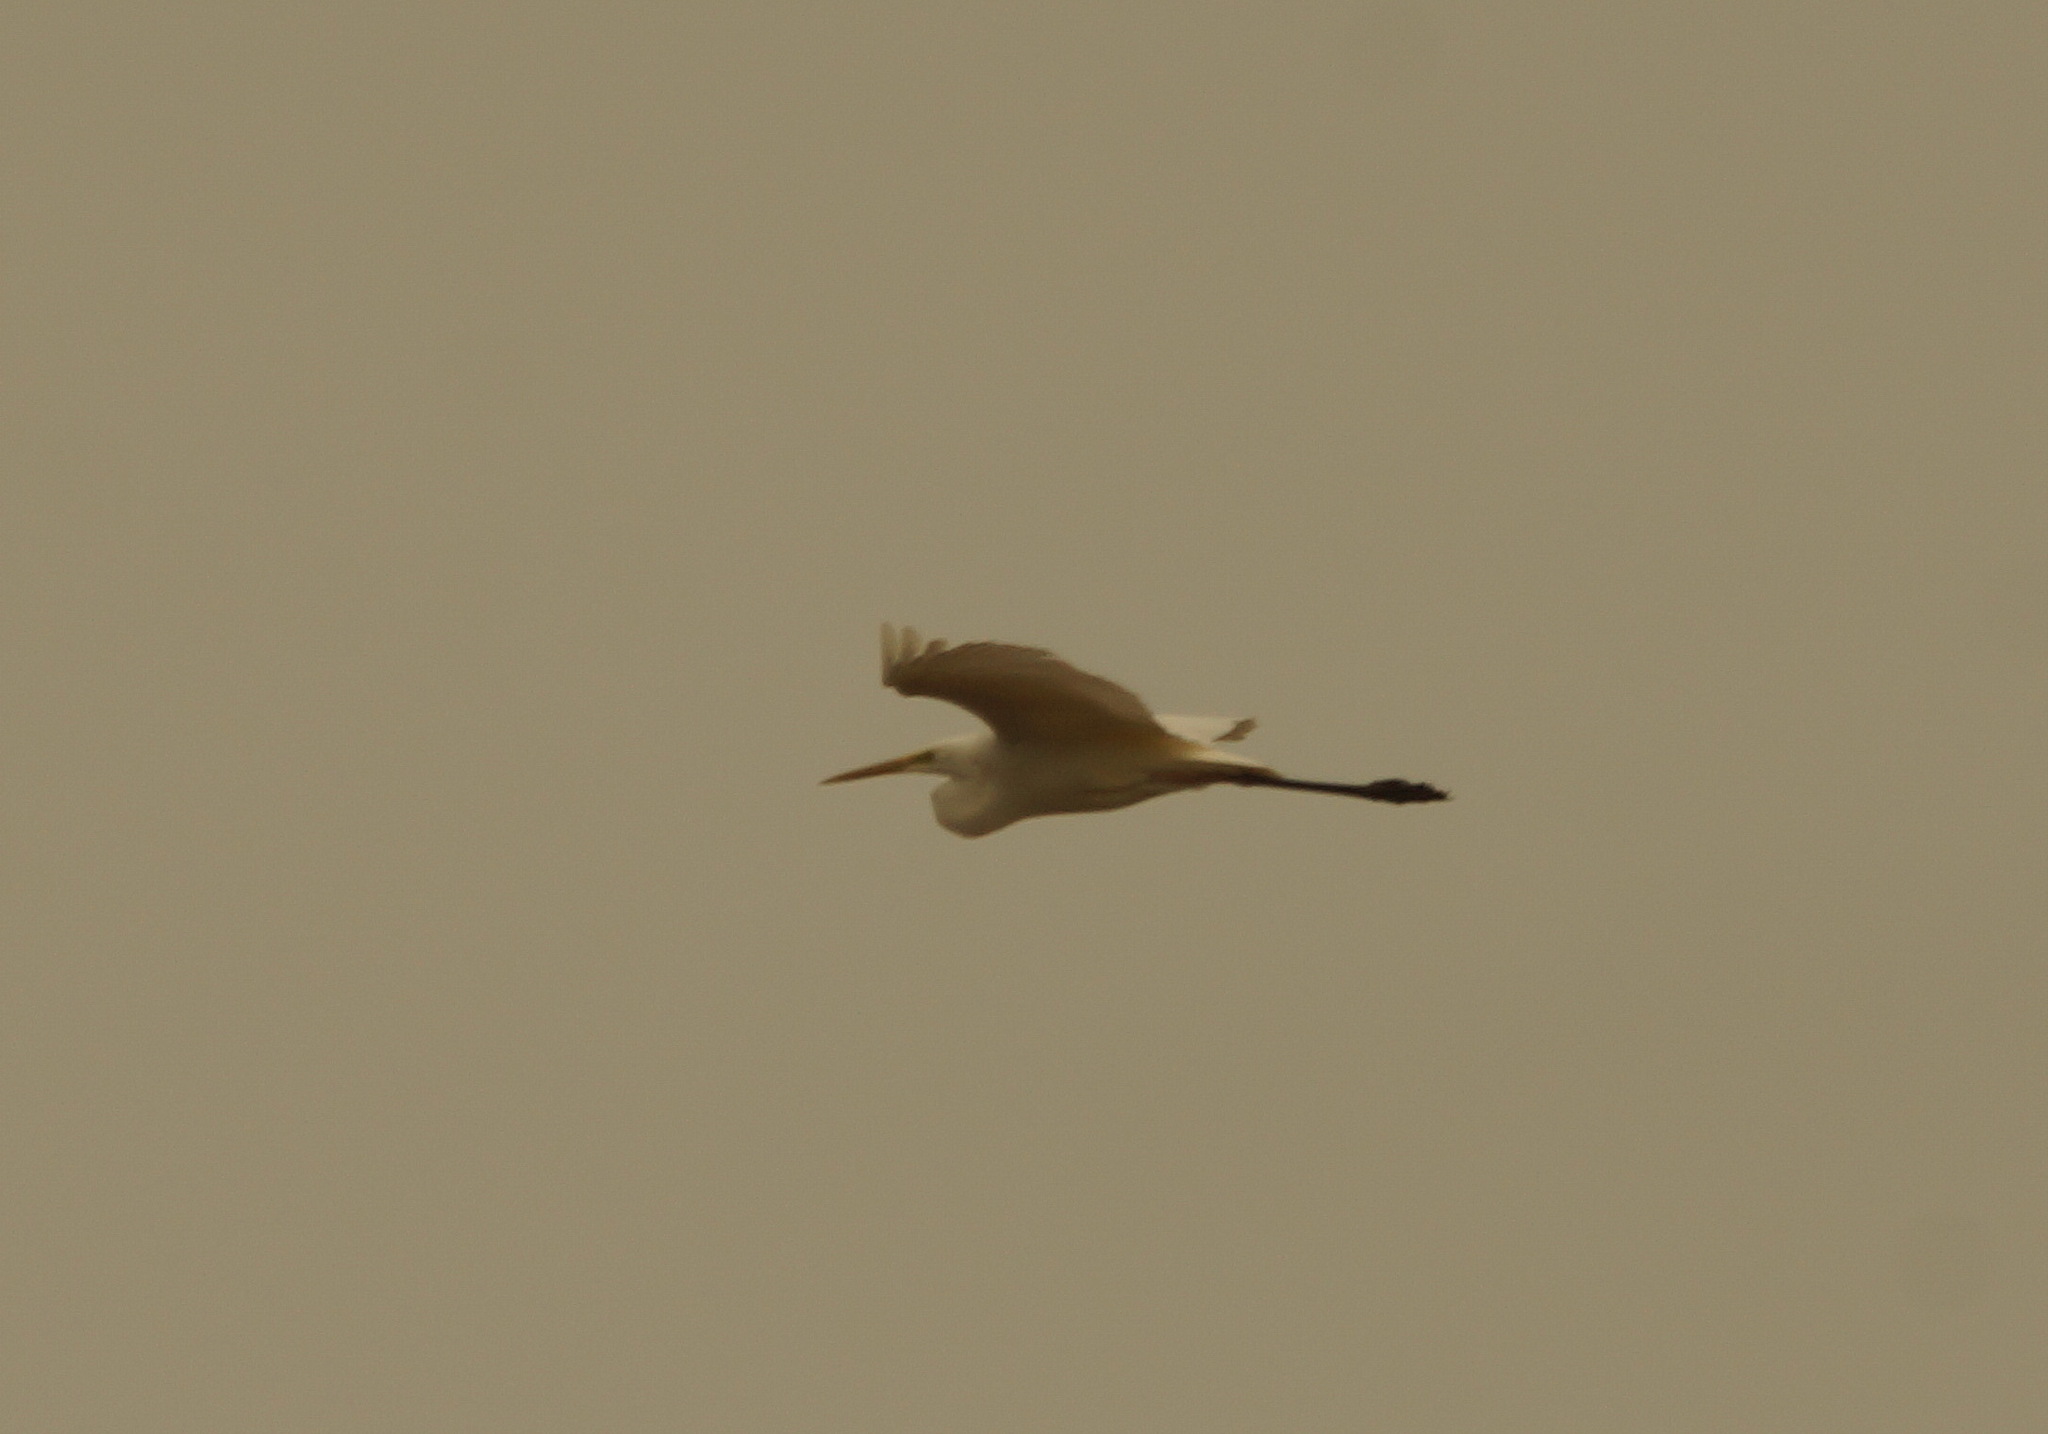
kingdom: Animalia
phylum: Chordata
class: Aves
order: Pelecaniformes
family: Ardeidae
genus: Ardea
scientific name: Ardea alba
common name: Great egret
